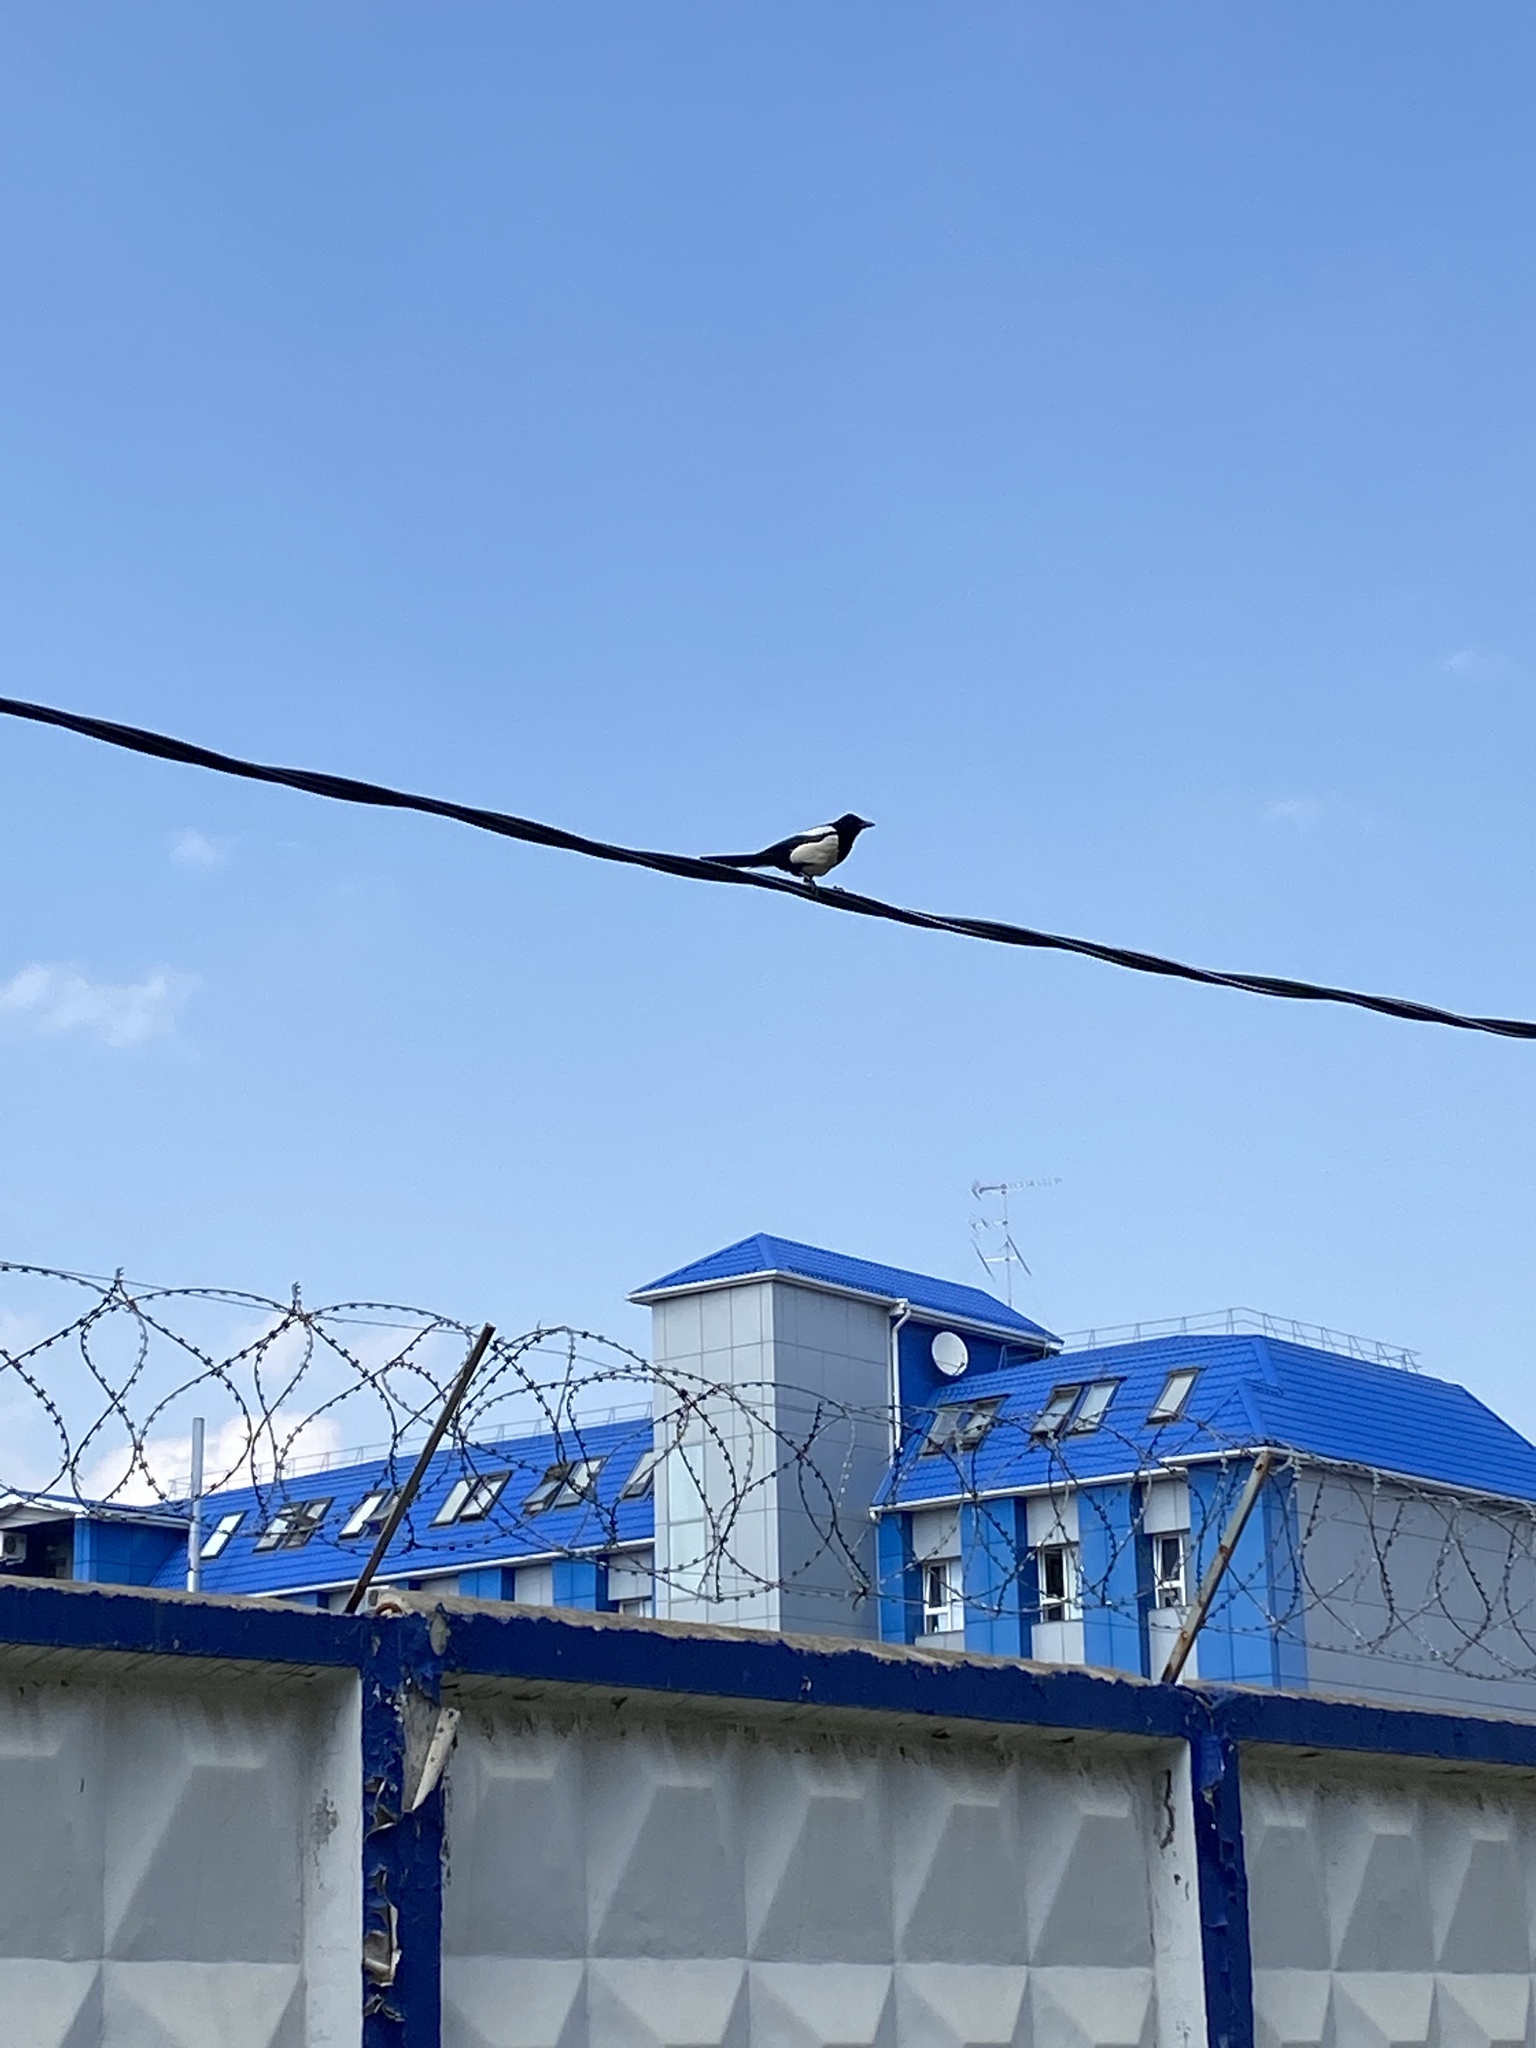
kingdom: Animalia
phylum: Chordata
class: Aves
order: Passeriformes
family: Corvidae
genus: Pica
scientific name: Pica pica
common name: Eurasian magpie
